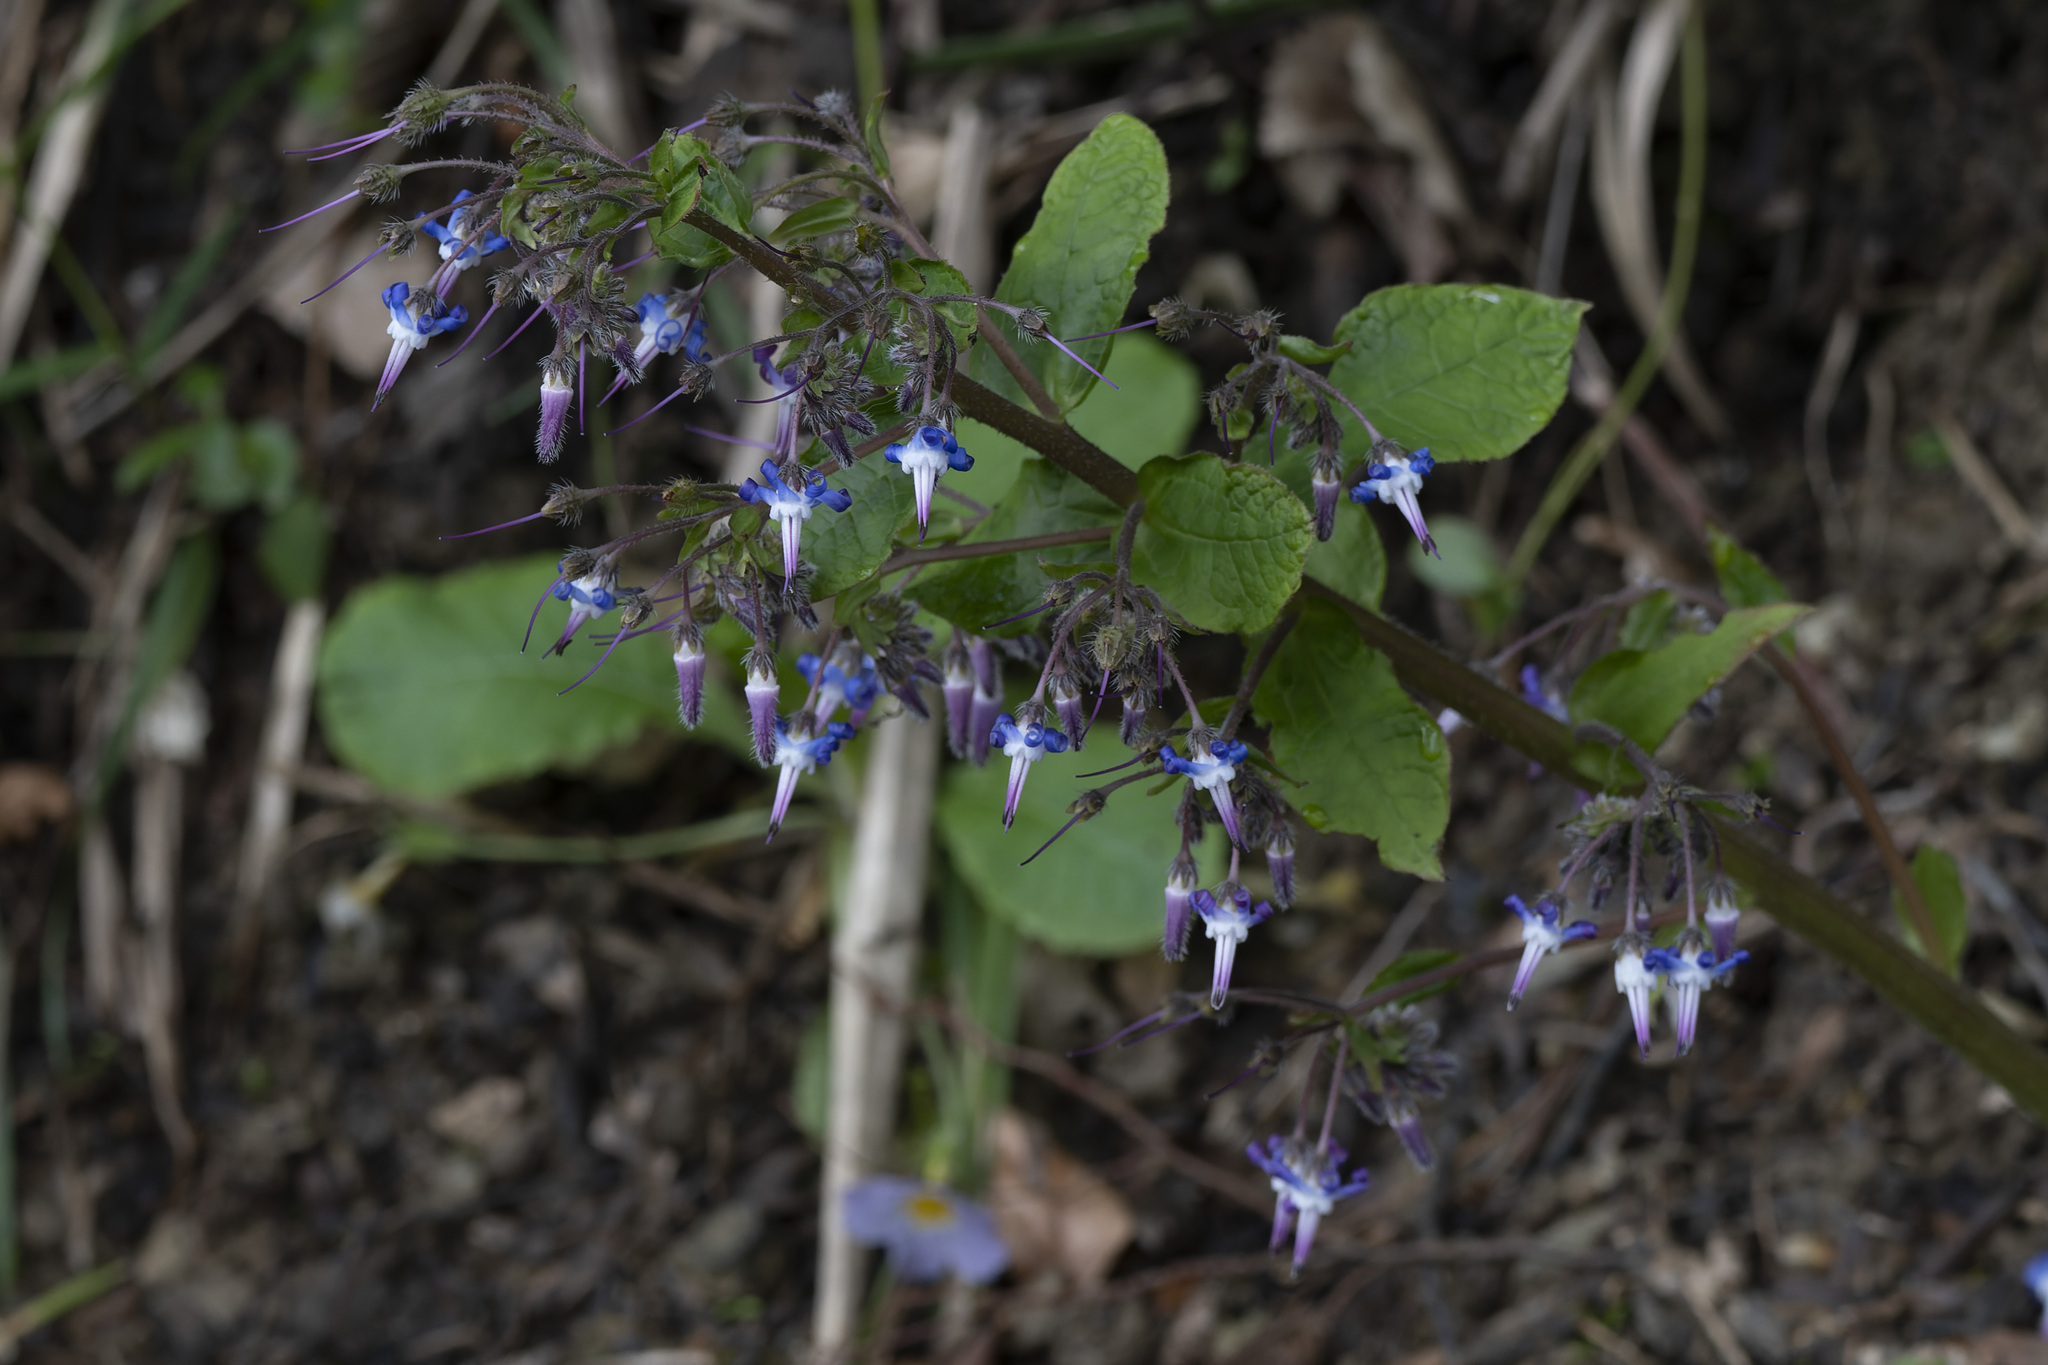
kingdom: Plantae
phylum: Tracheophyta
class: Magnoliopsida
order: Boraginales
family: Boraginaceae
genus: Trachystemon
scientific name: Trachystemon orientale
